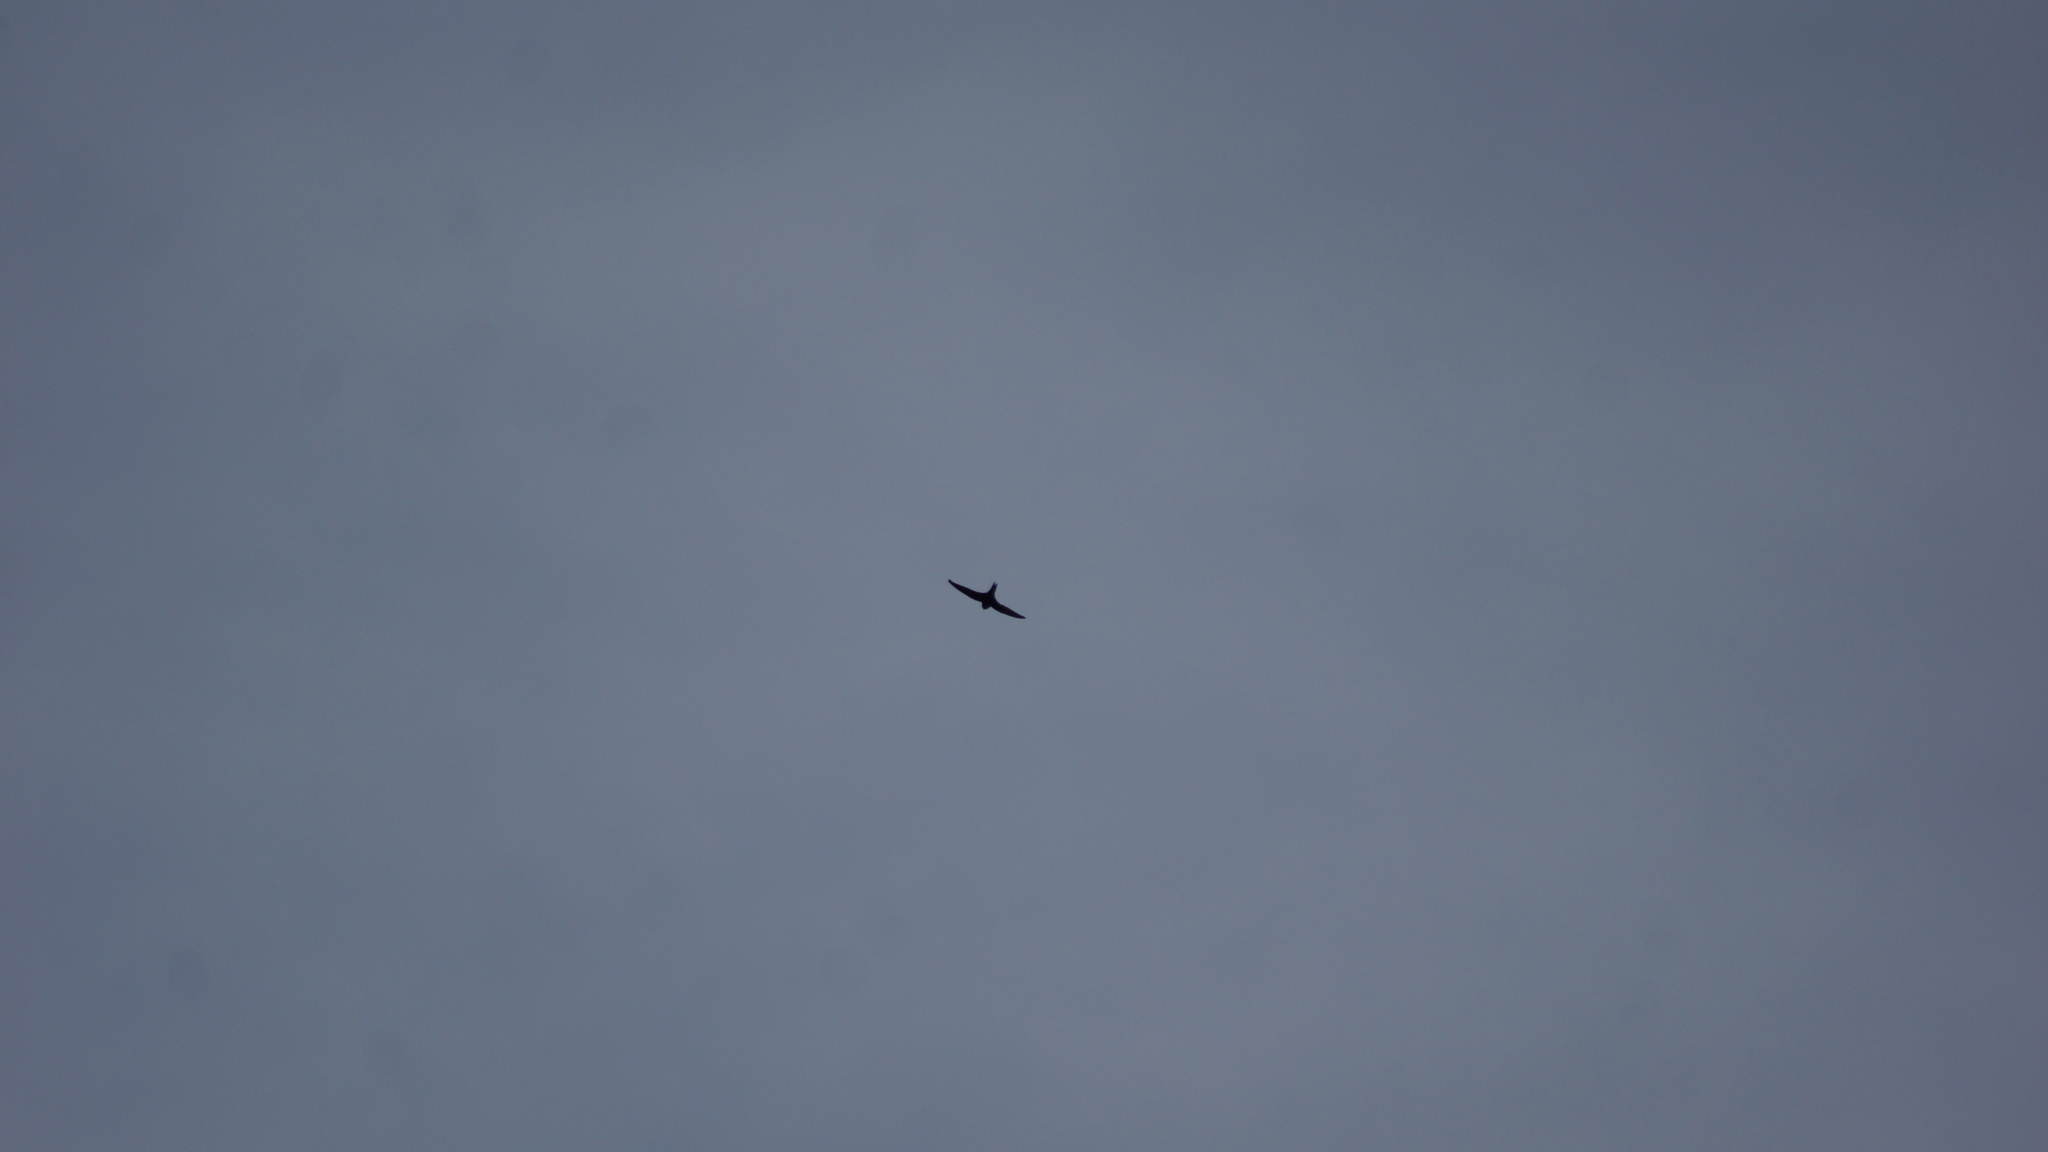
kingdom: Animalia
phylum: Chordata
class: Aves
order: Apodiformes
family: Apodidae
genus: Apus
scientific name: Apus apus
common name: Common swift
